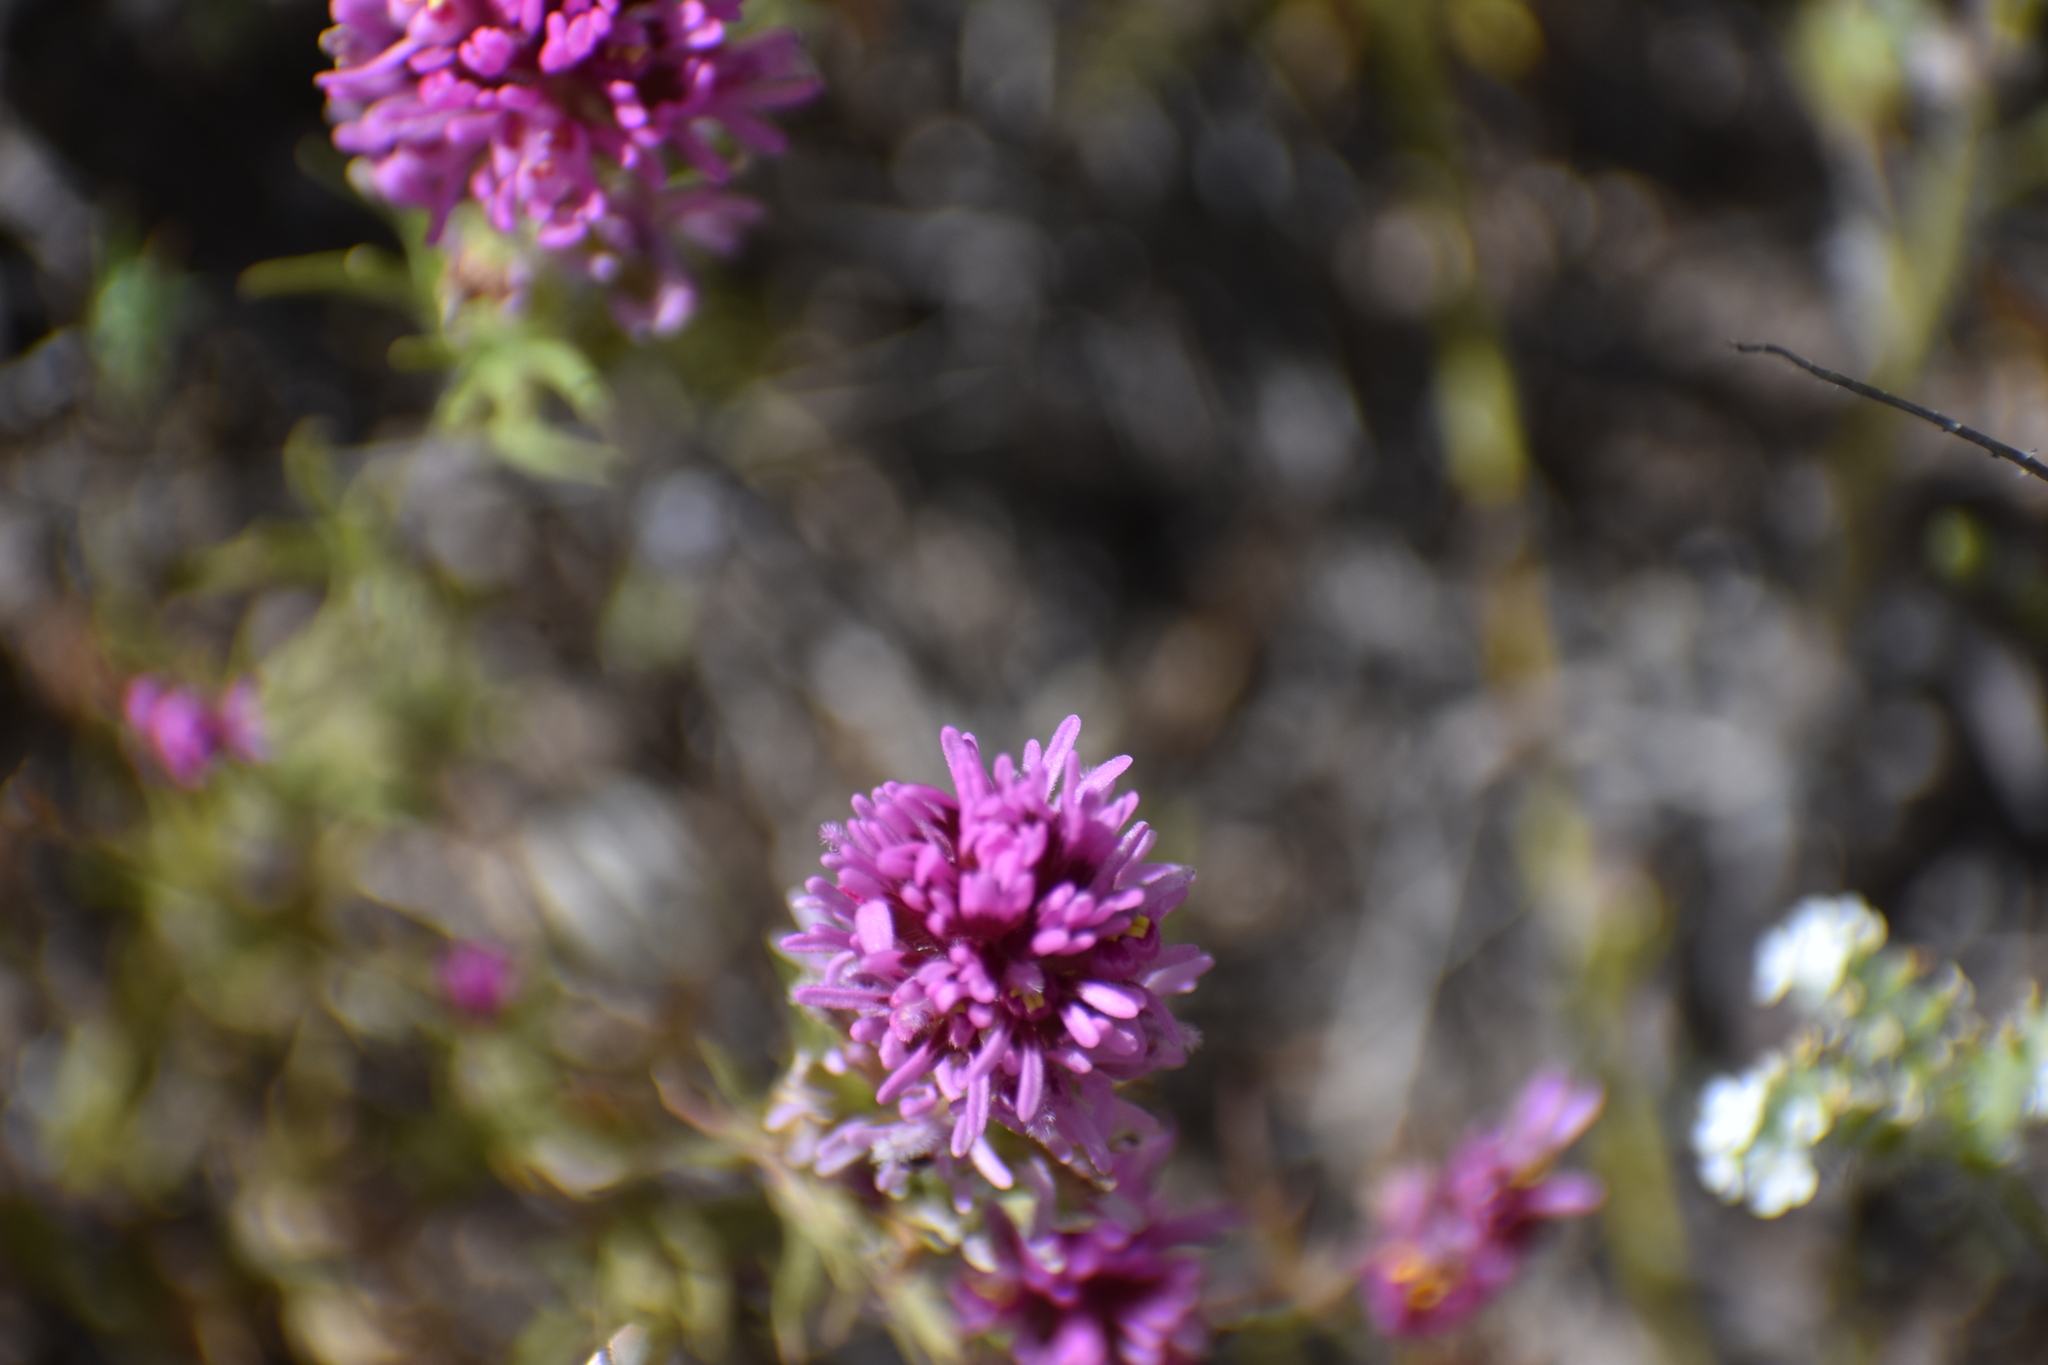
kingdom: Plantae
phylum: Tracheophyta
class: Magnoliopsida
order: Lamiales
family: Orobanchaceae
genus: Castilleja
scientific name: Castilleja exserta
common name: Purple owl-clover
